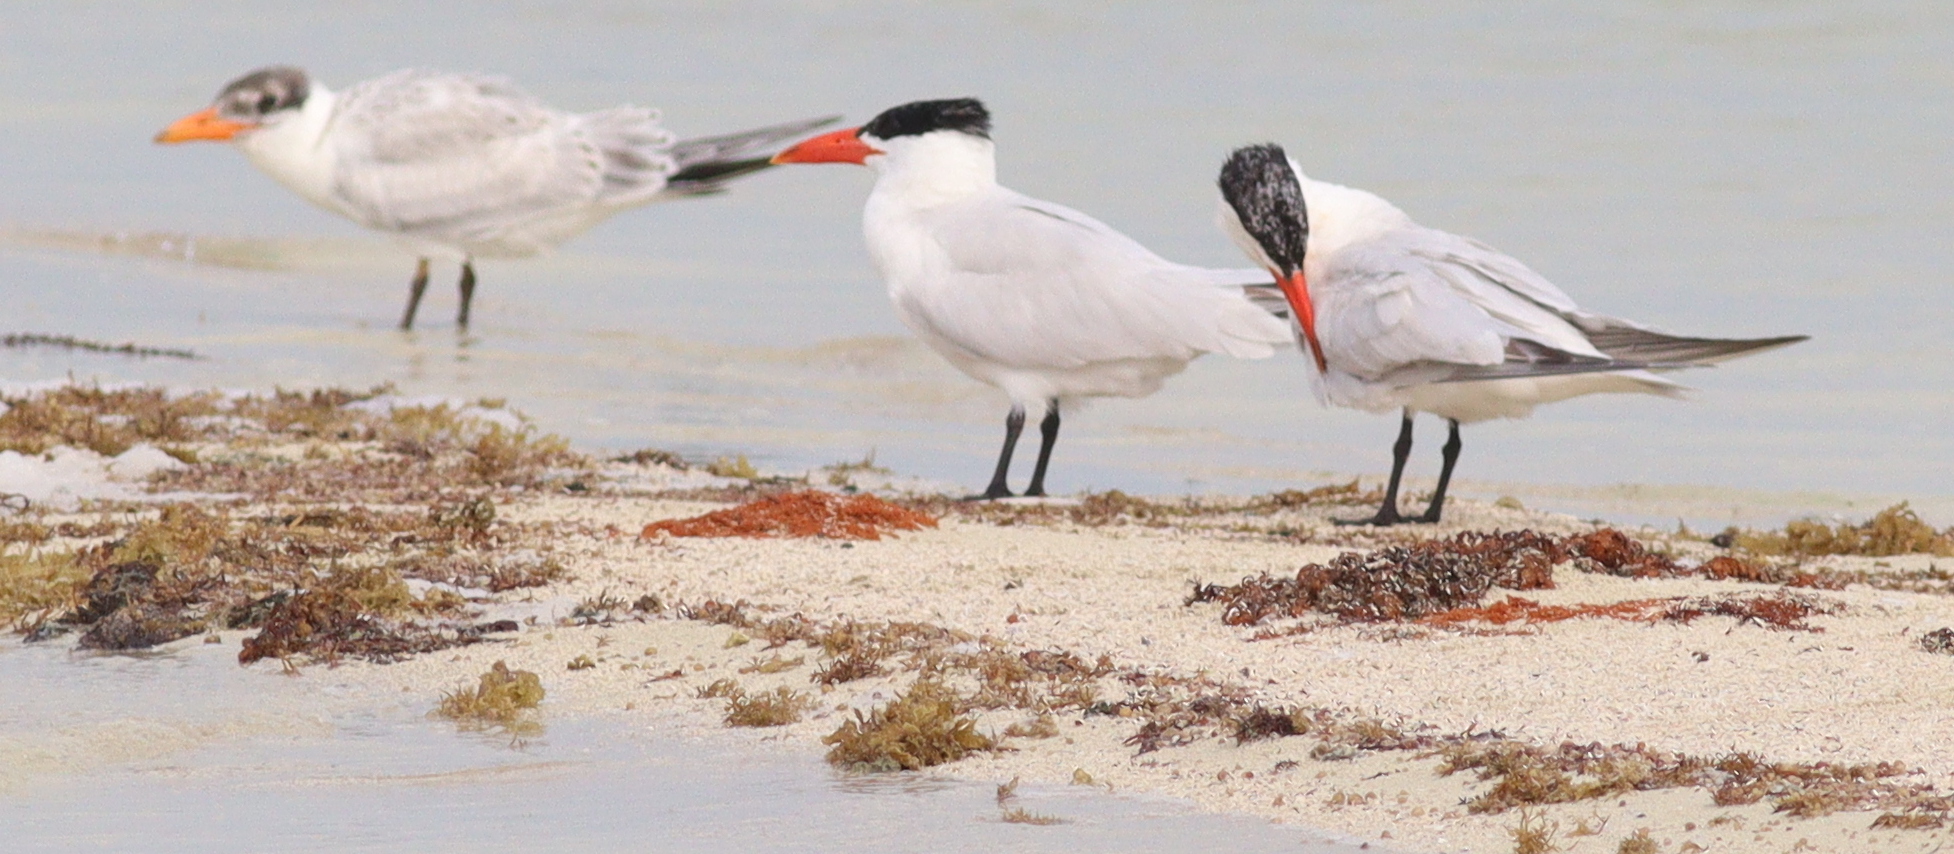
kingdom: Animalia
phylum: Chordata
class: Aves
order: Charadriiformes
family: Laridae
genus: Hydroprogne
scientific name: Hydroprogne caspia
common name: Caspian tern
